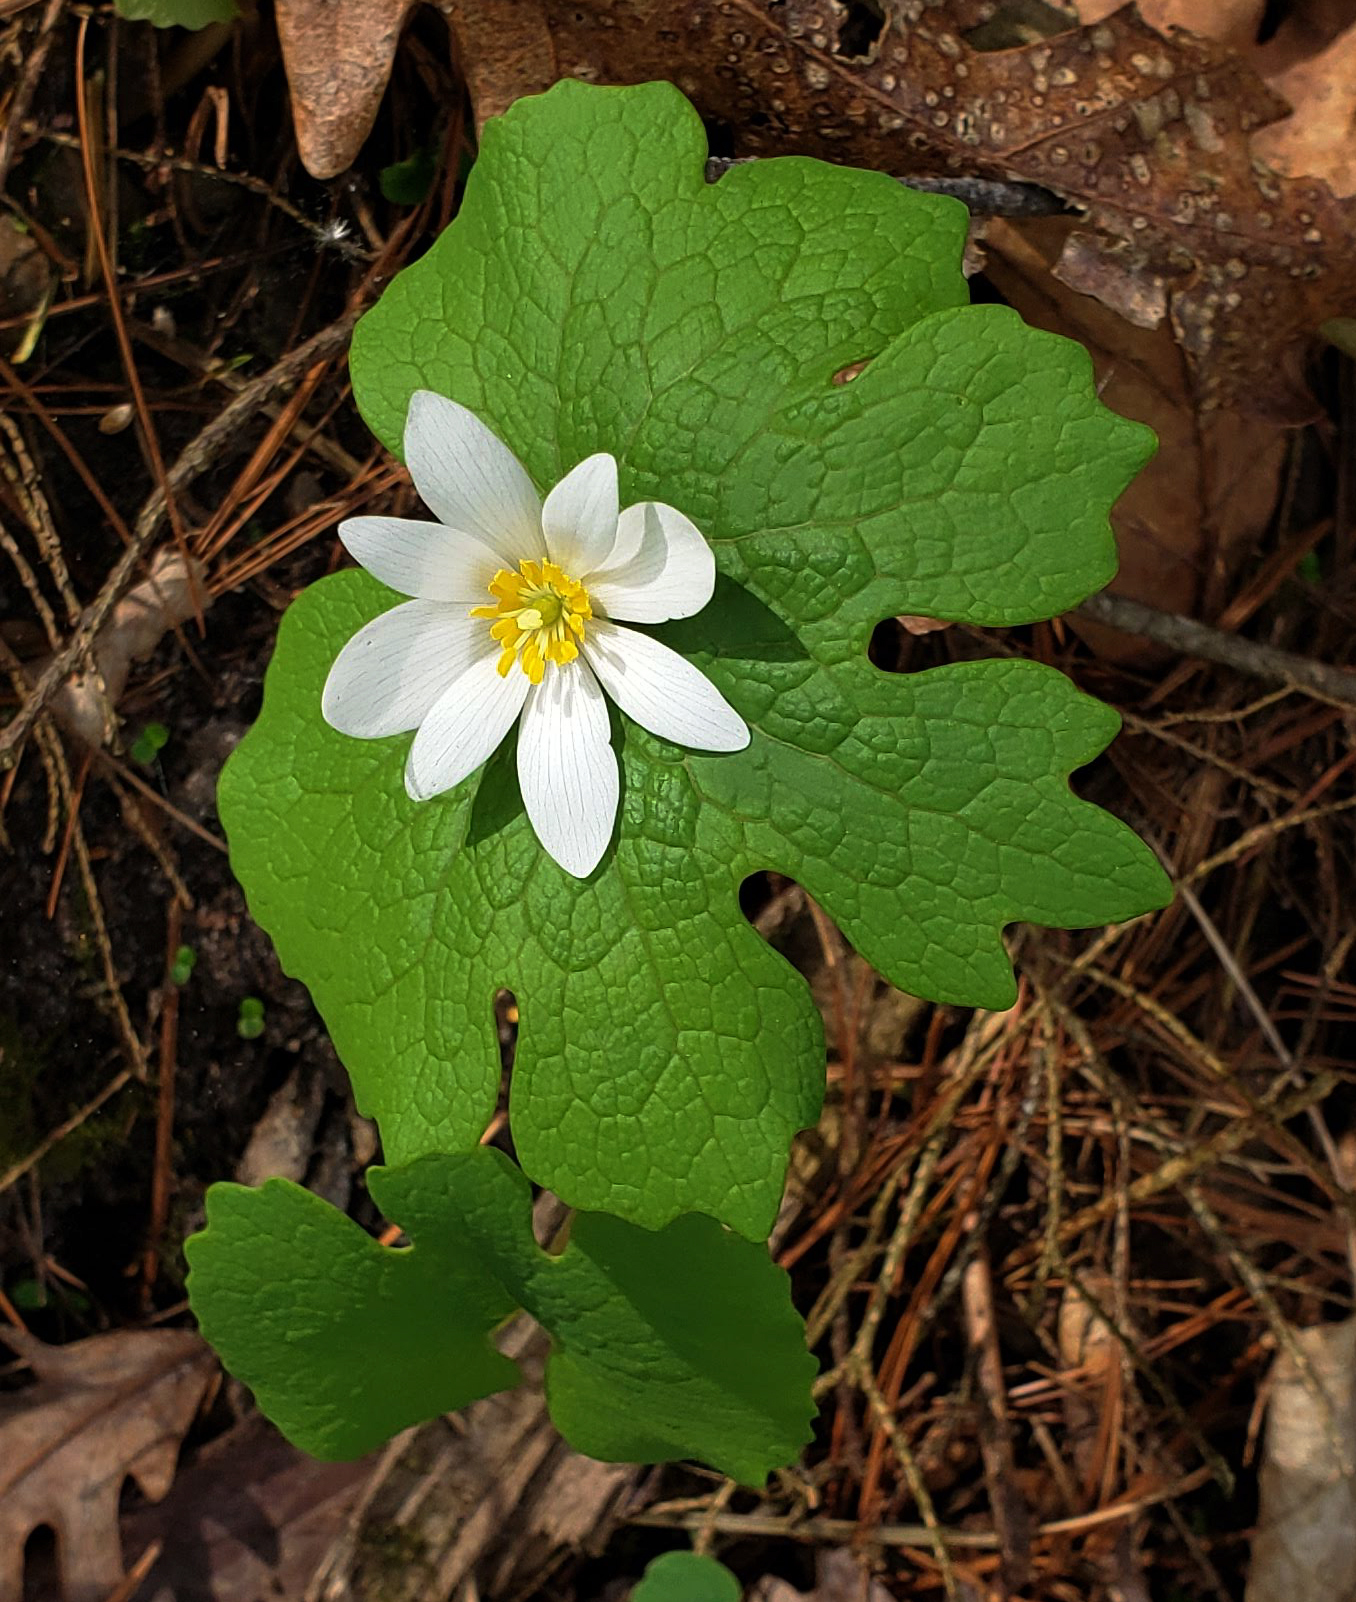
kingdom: Plantae
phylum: Tracheophyta
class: Magnoliopsida
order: Ranunculales
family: Papaveraceae
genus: Sanguinaria
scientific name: Sanguinaria canadensis
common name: Bloodroot
